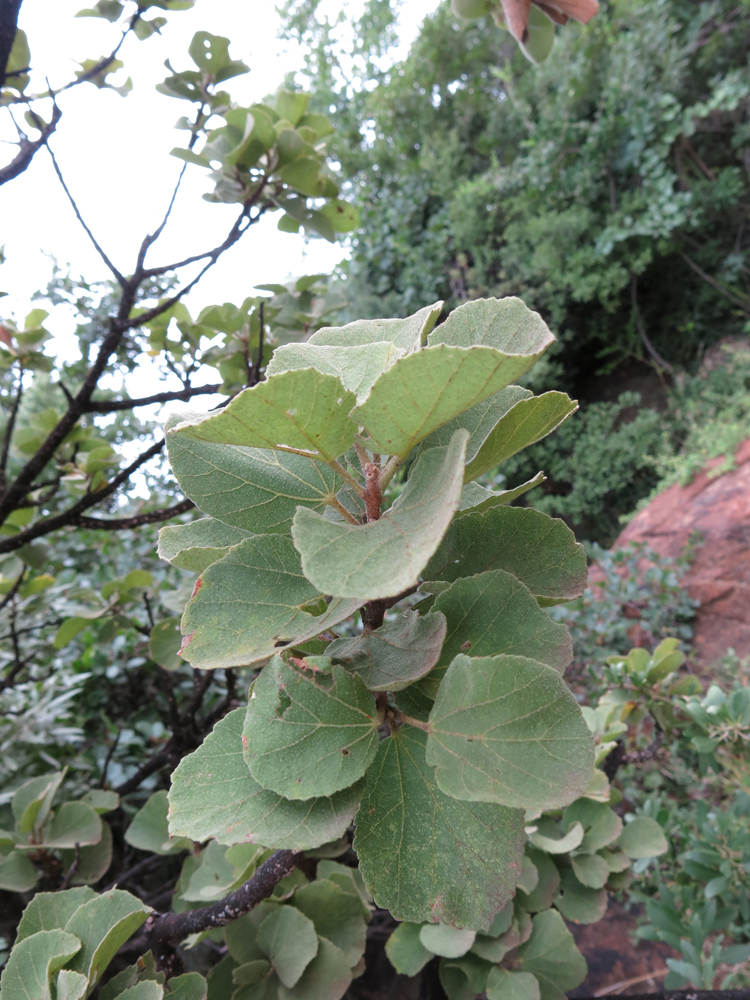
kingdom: Plantae
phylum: Tracheophyta
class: Magnoliopsida
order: Malvales
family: Malvaceae
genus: Dombeya
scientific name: Dombeya rotundifolia
